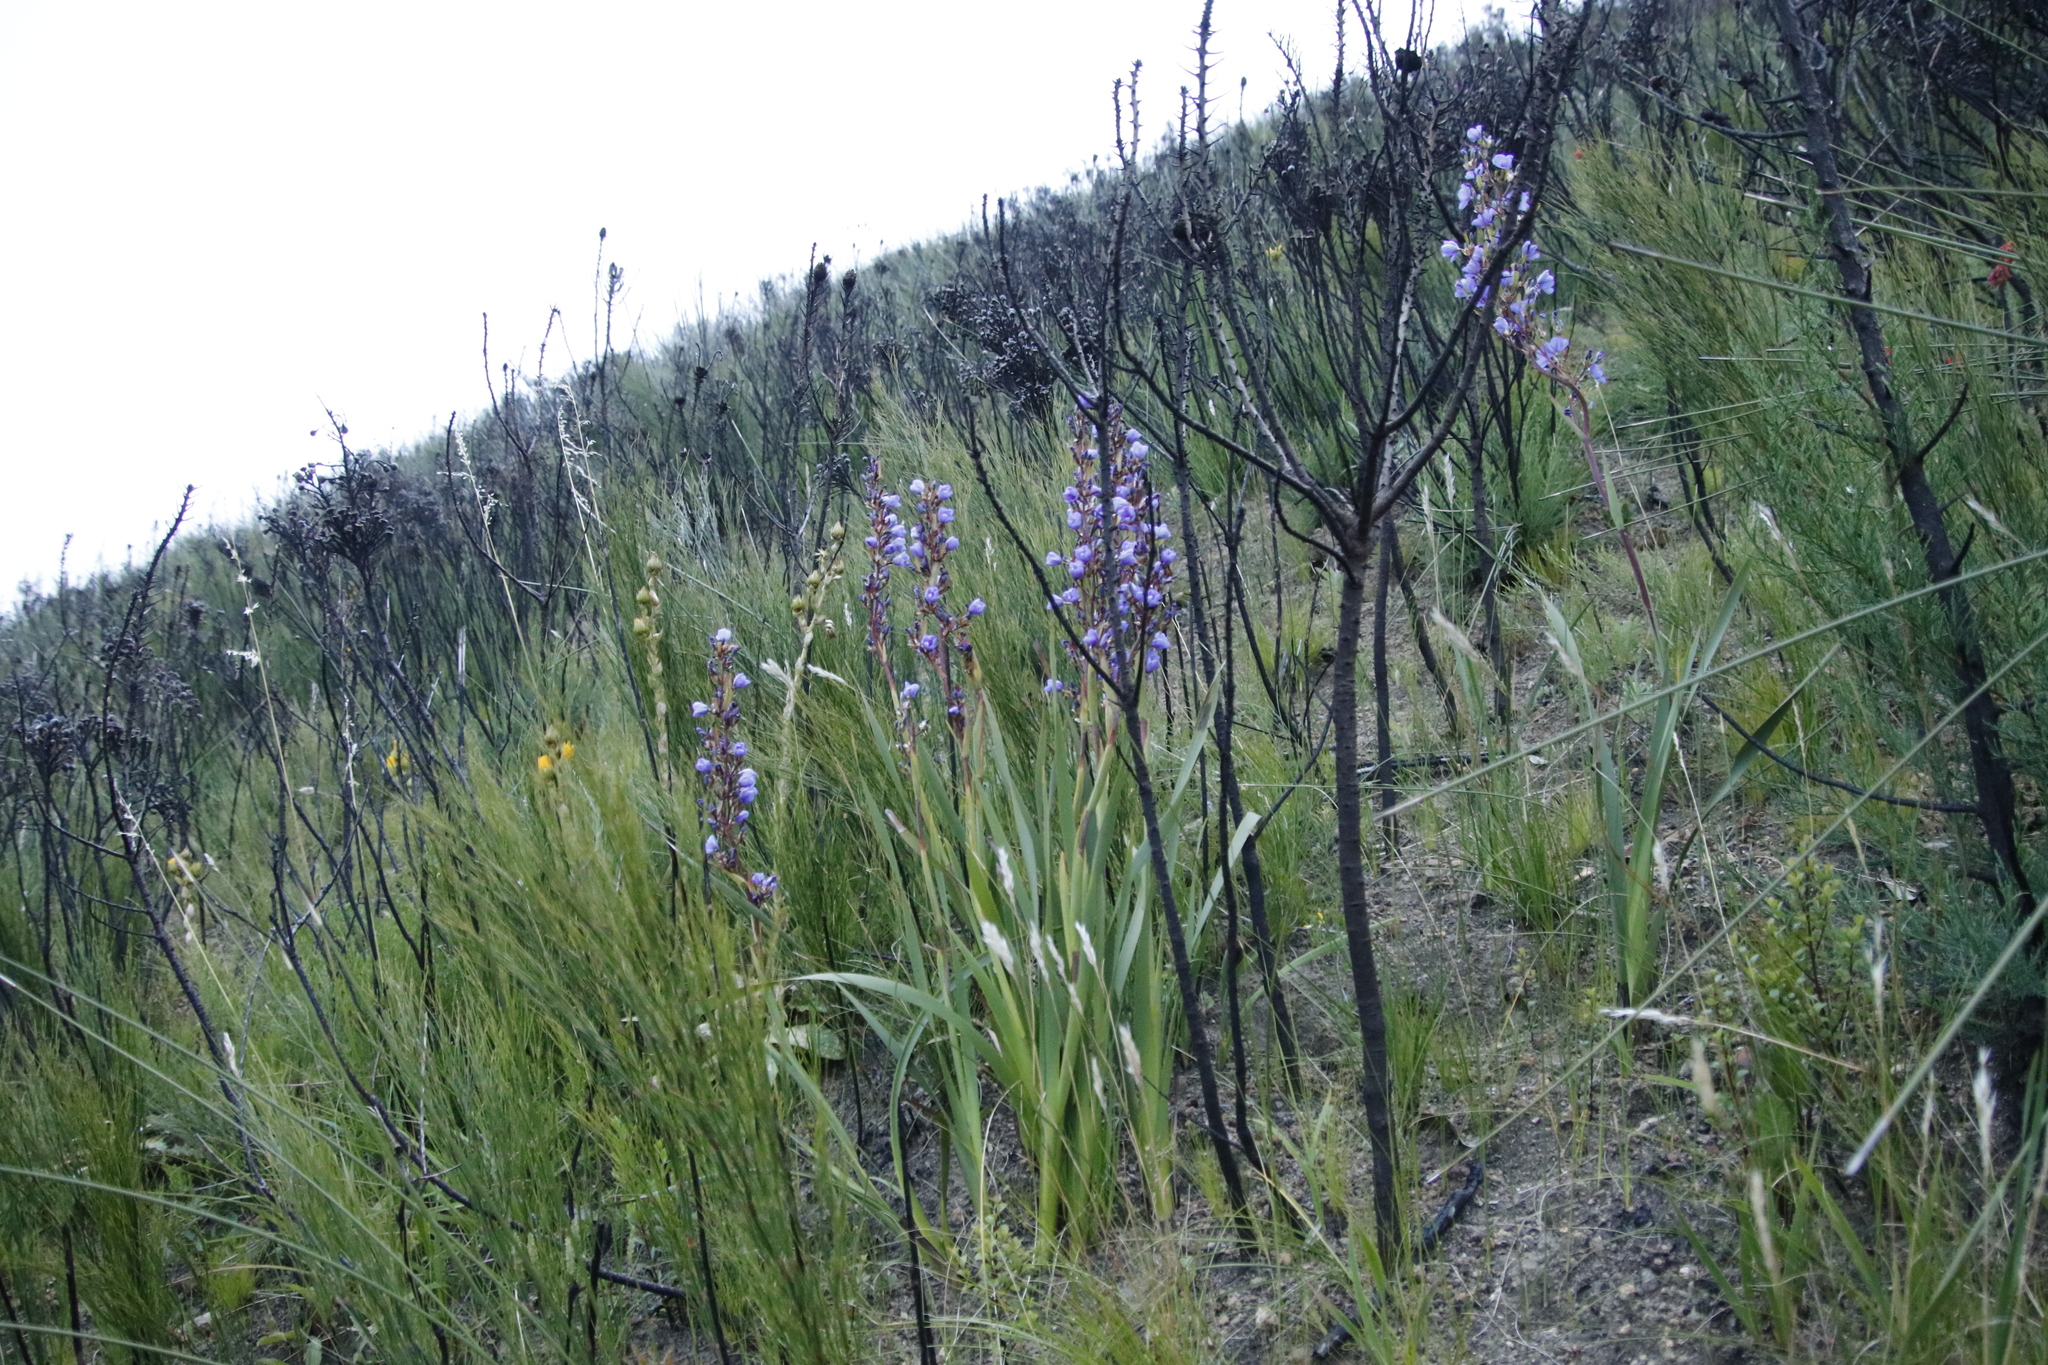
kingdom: Plantae
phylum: Tracheophyta
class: Liliopsida
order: Asparagales
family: Iridaceae
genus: Aristea
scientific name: Aristea bakeri
